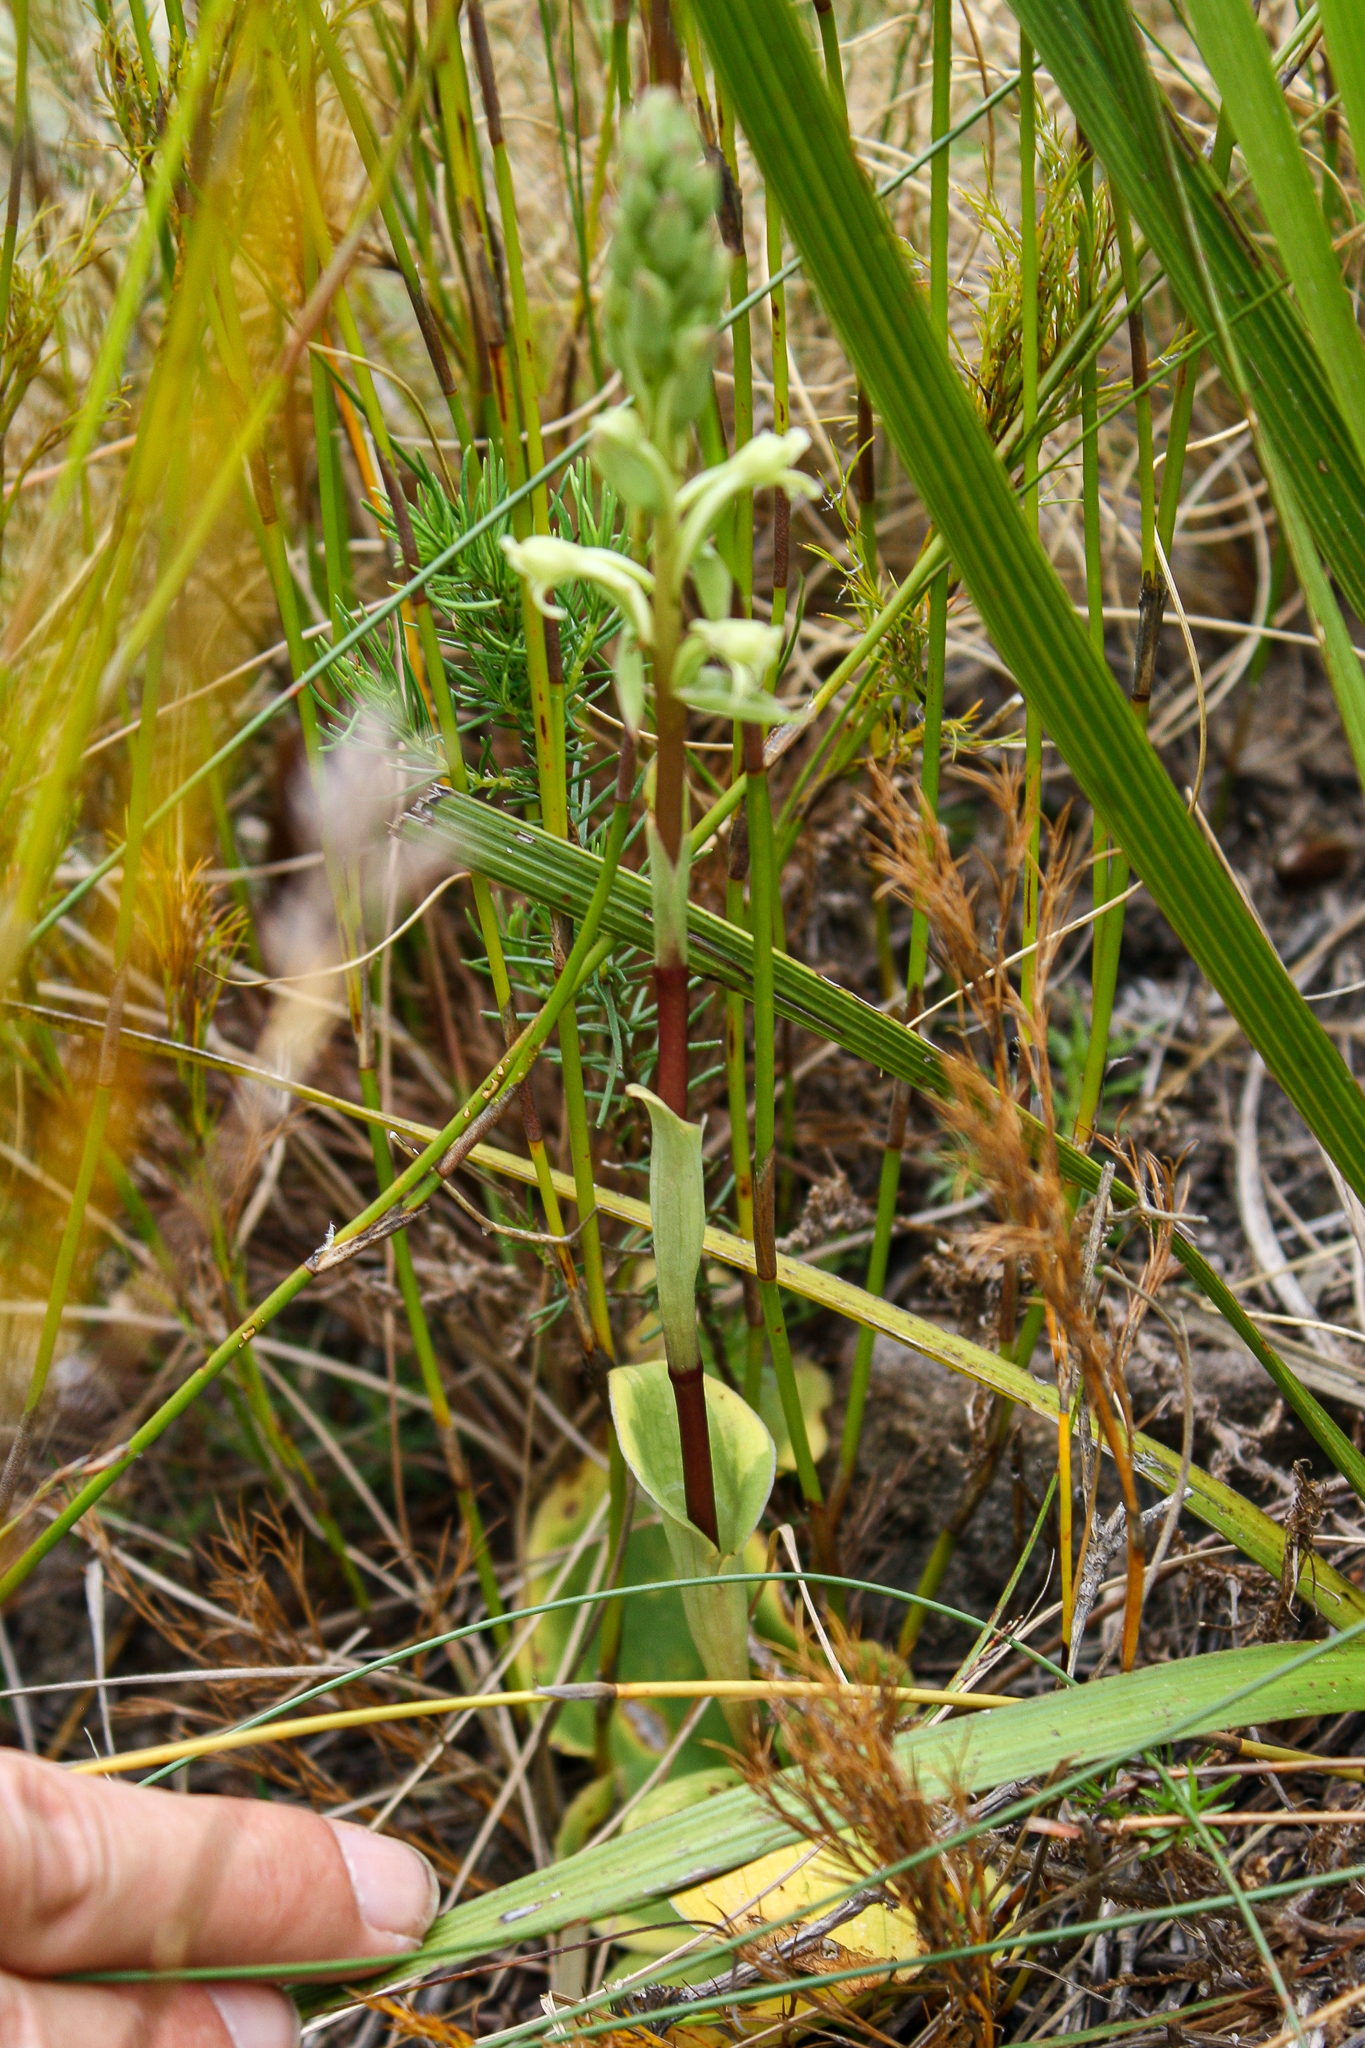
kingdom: Plantae
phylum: Tracheophyta
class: Liliopsida
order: Asparagales
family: Orchidaceae
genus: Satyrium
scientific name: Satyrium humile
